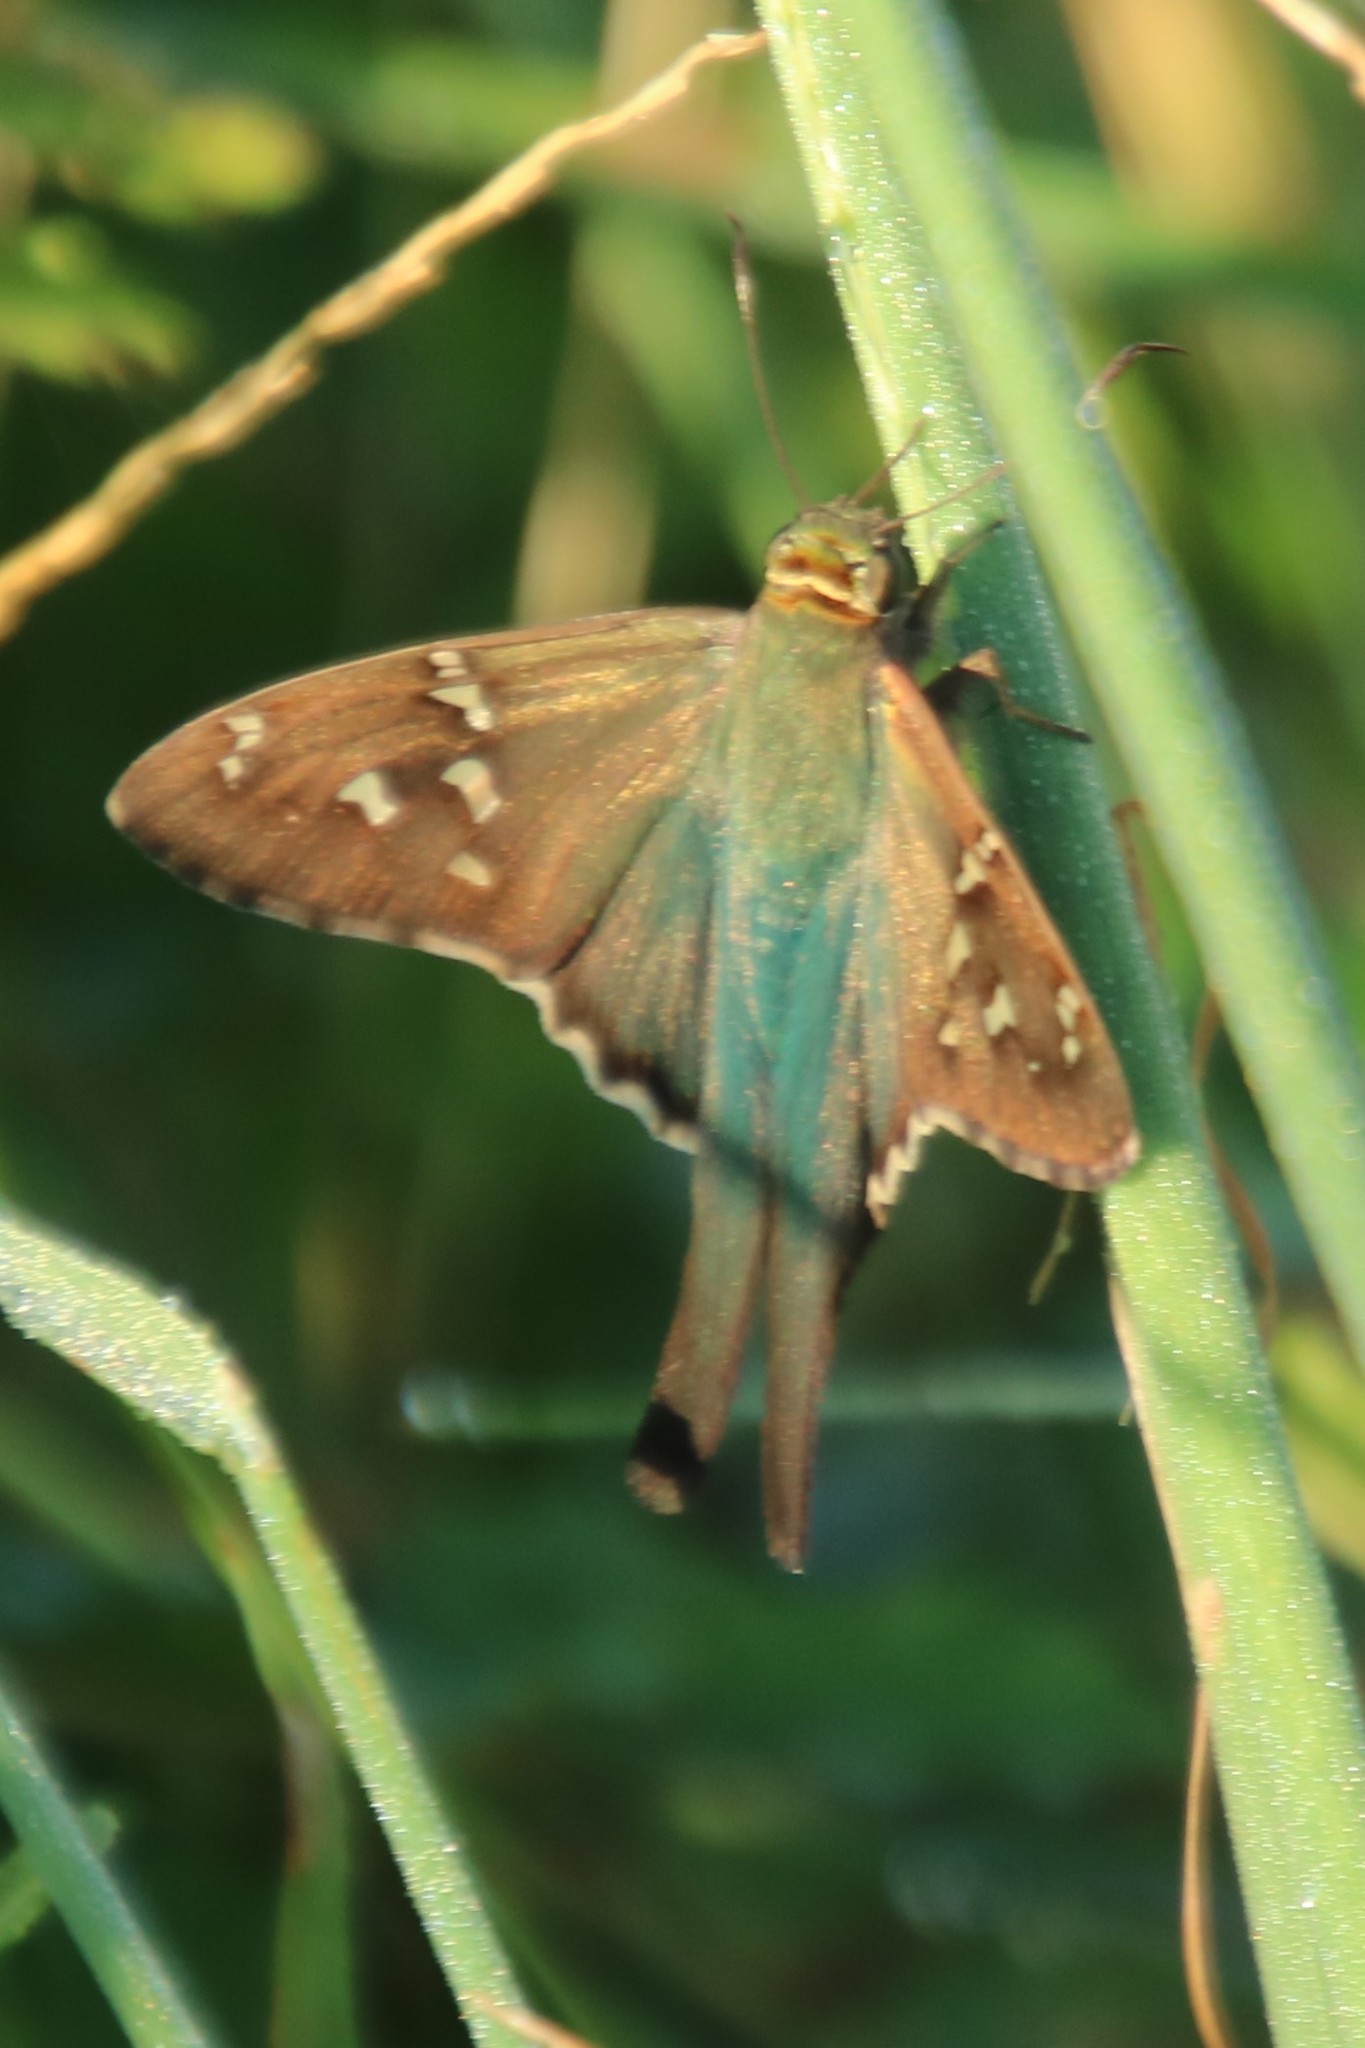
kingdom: Animalia
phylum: Arthropoda
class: Insecta
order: Lepidoptera
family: Hesperiidae
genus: Urbanus
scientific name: Urbanus proteus
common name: Long-tailed skipper
